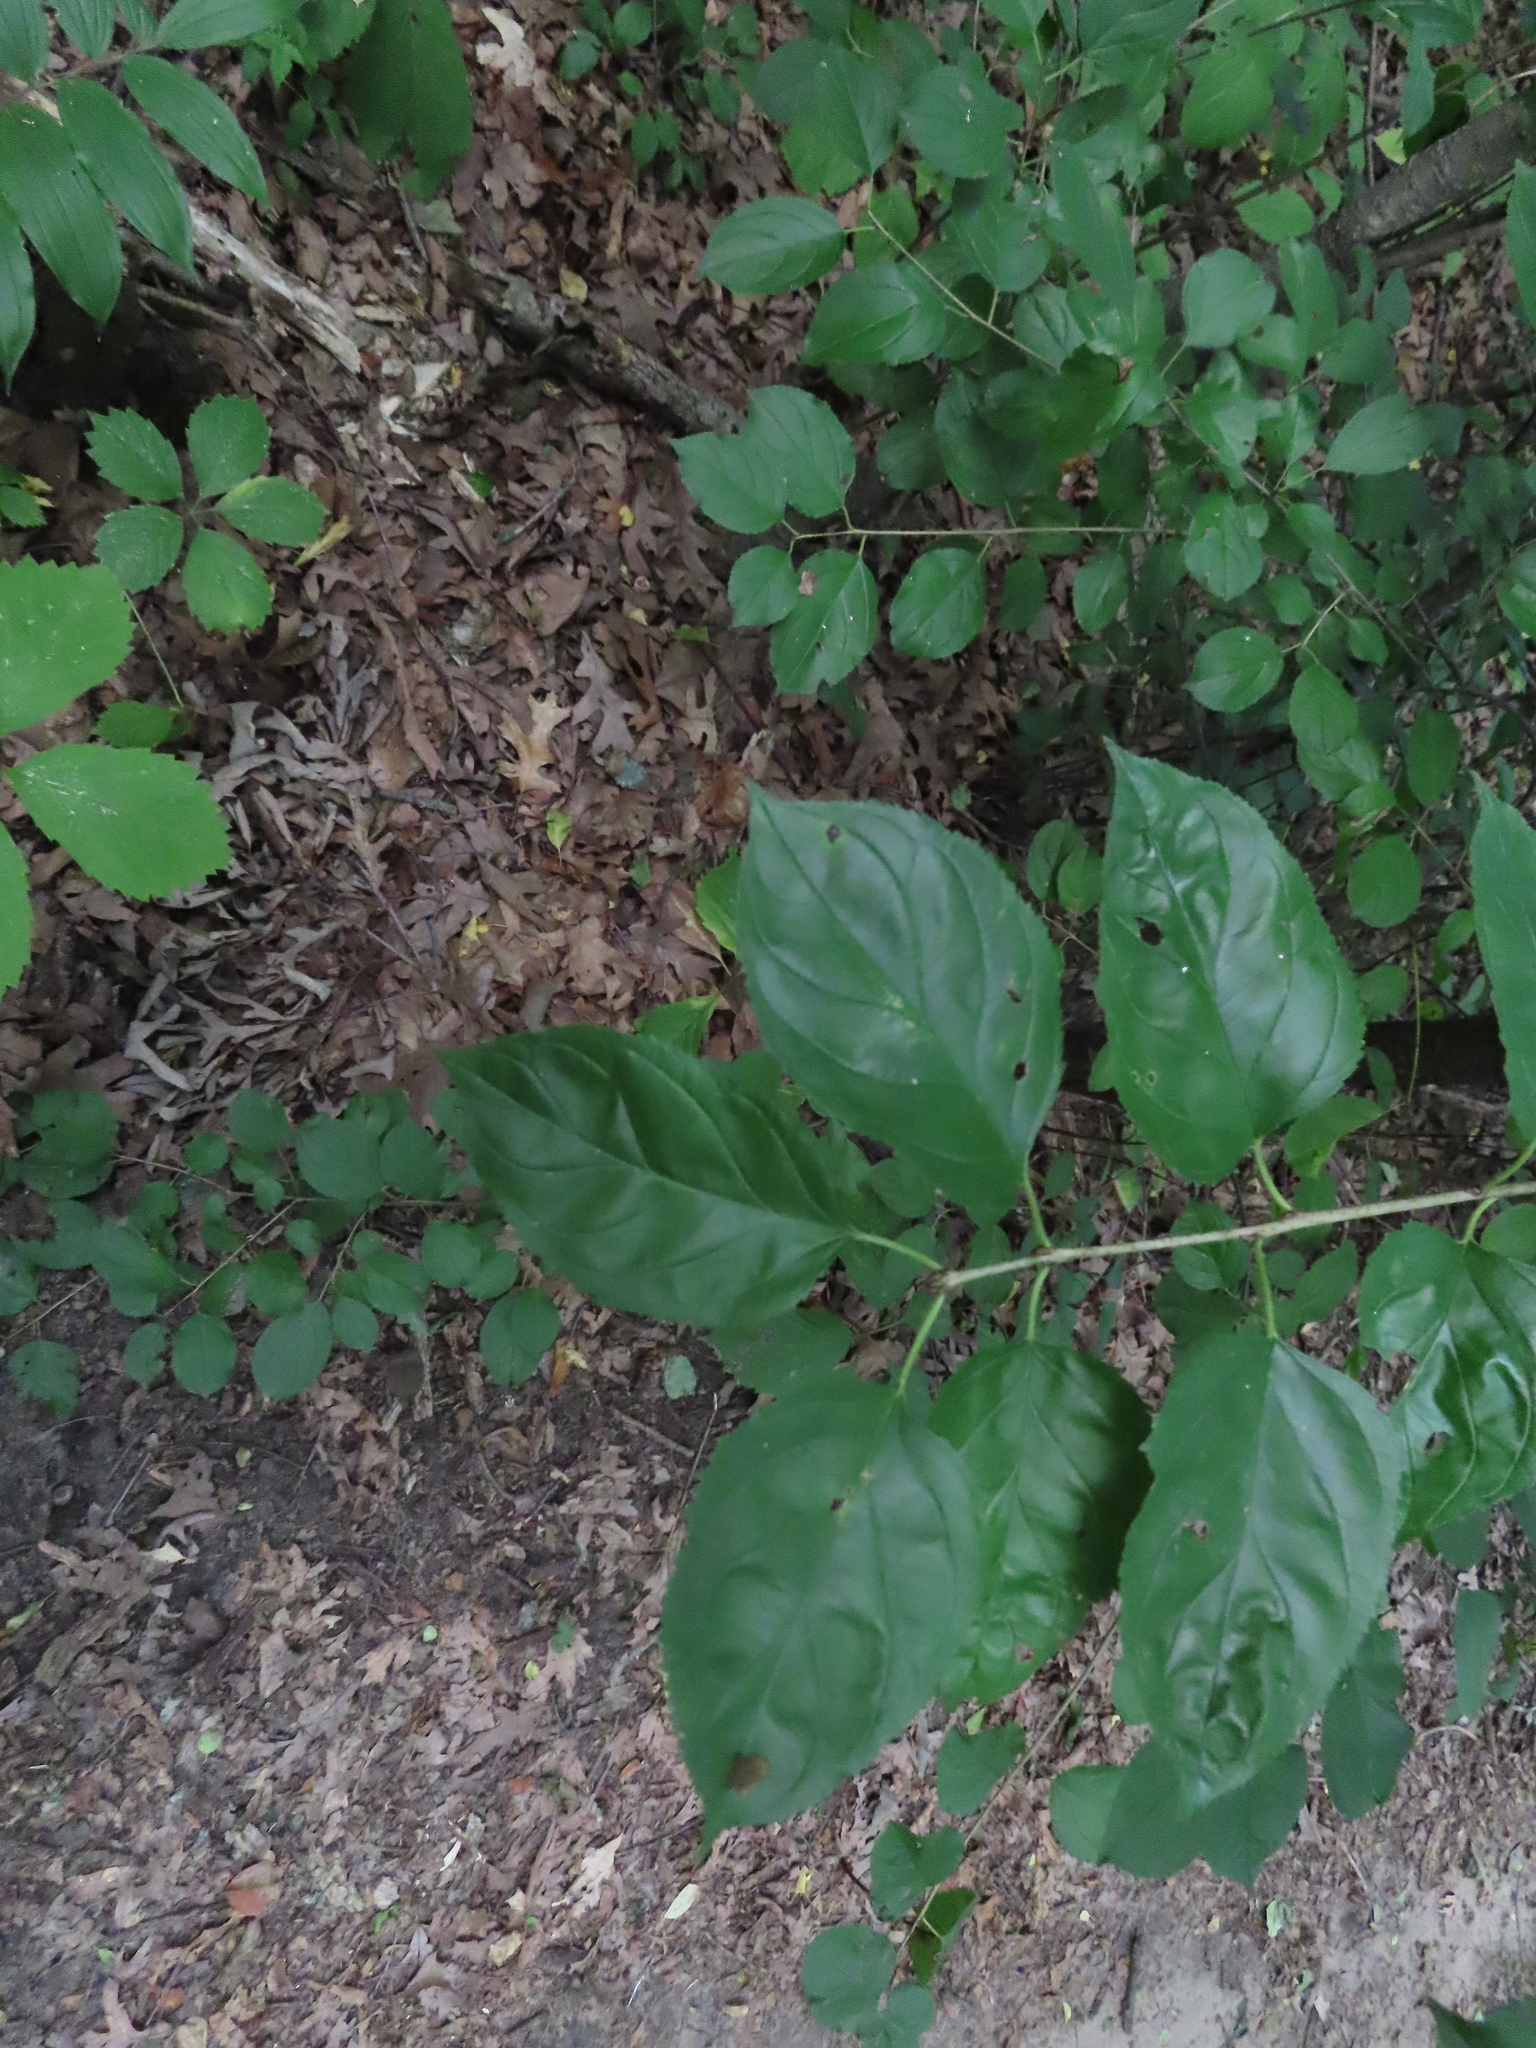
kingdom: Plantae
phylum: Tracheophyta
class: Magnoliopsida
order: Rosales
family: Rhamnaceae
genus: Rhamnus
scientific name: Rhamnus cathartica
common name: Common buckthorn
